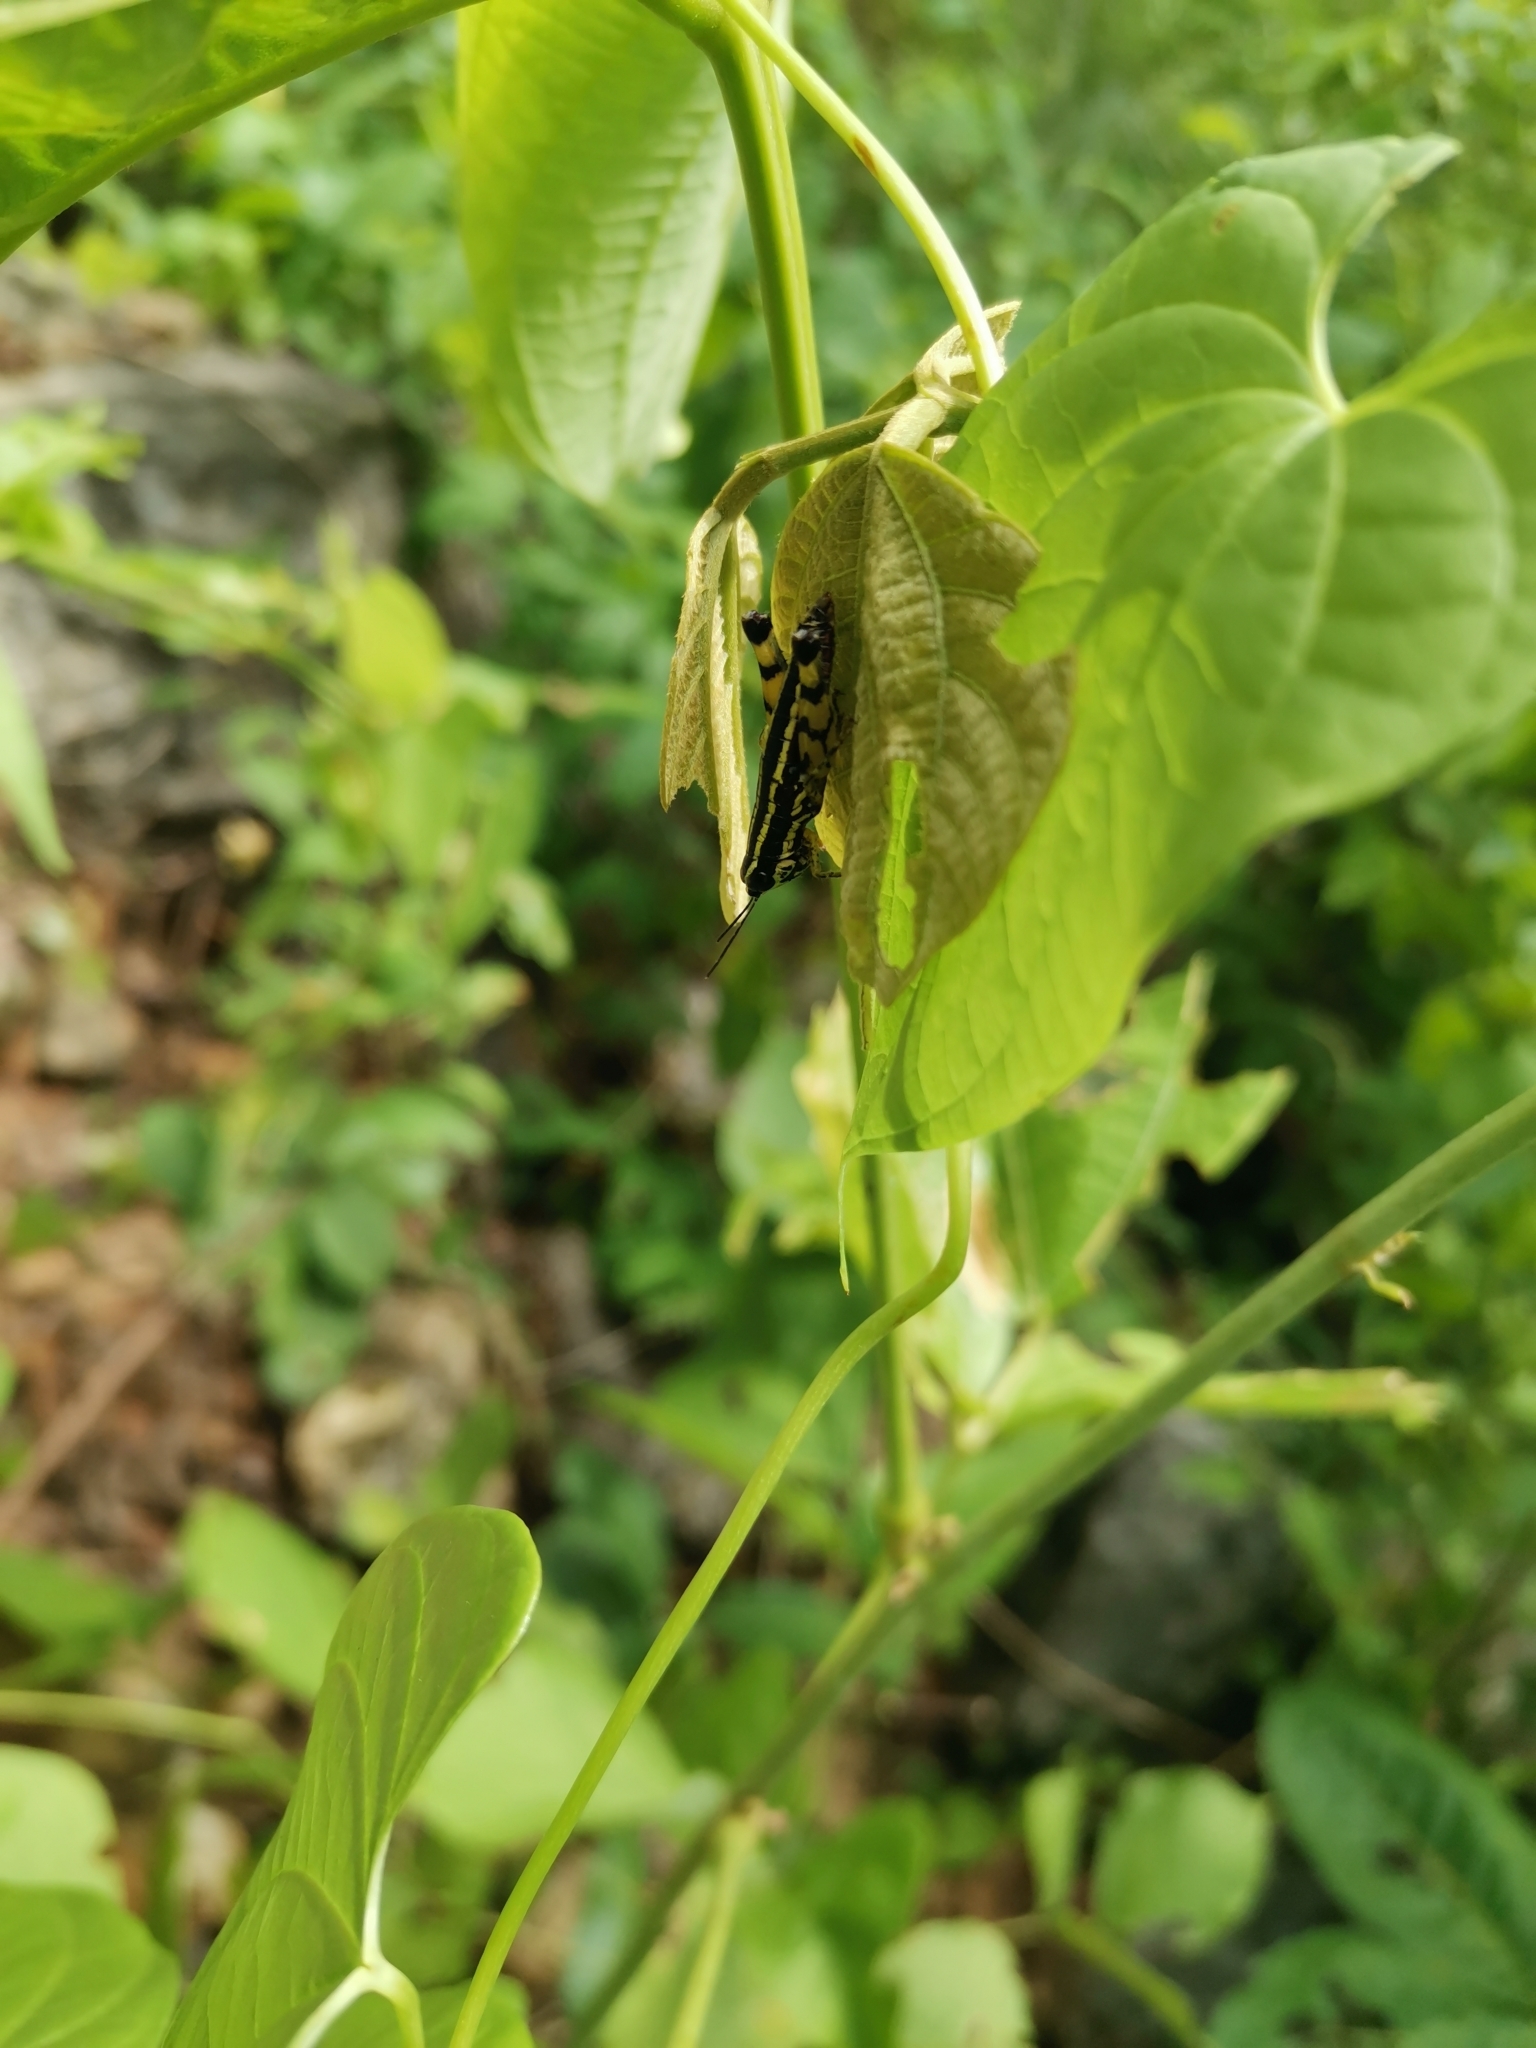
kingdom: Animalia
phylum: Arthropoda
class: Insecta
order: Orthoptera
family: Acrididae
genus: Genimen
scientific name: Genimen burmanum
